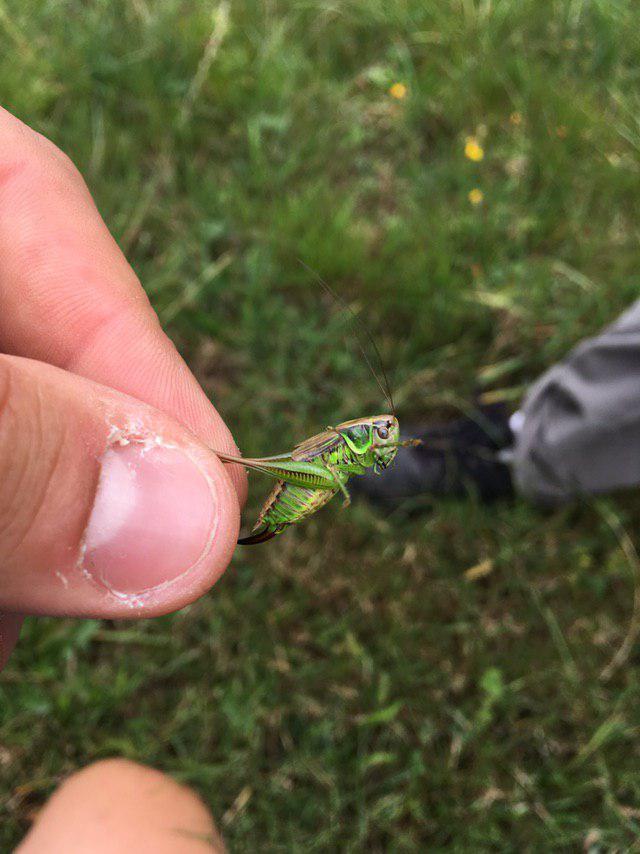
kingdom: Animalia
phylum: Arthropoda
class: Insecta
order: Orthoptera
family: Tettigoniidae
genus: Roeseliana
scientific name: Roeseliana roeselii
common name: Roesel's bush cricket
